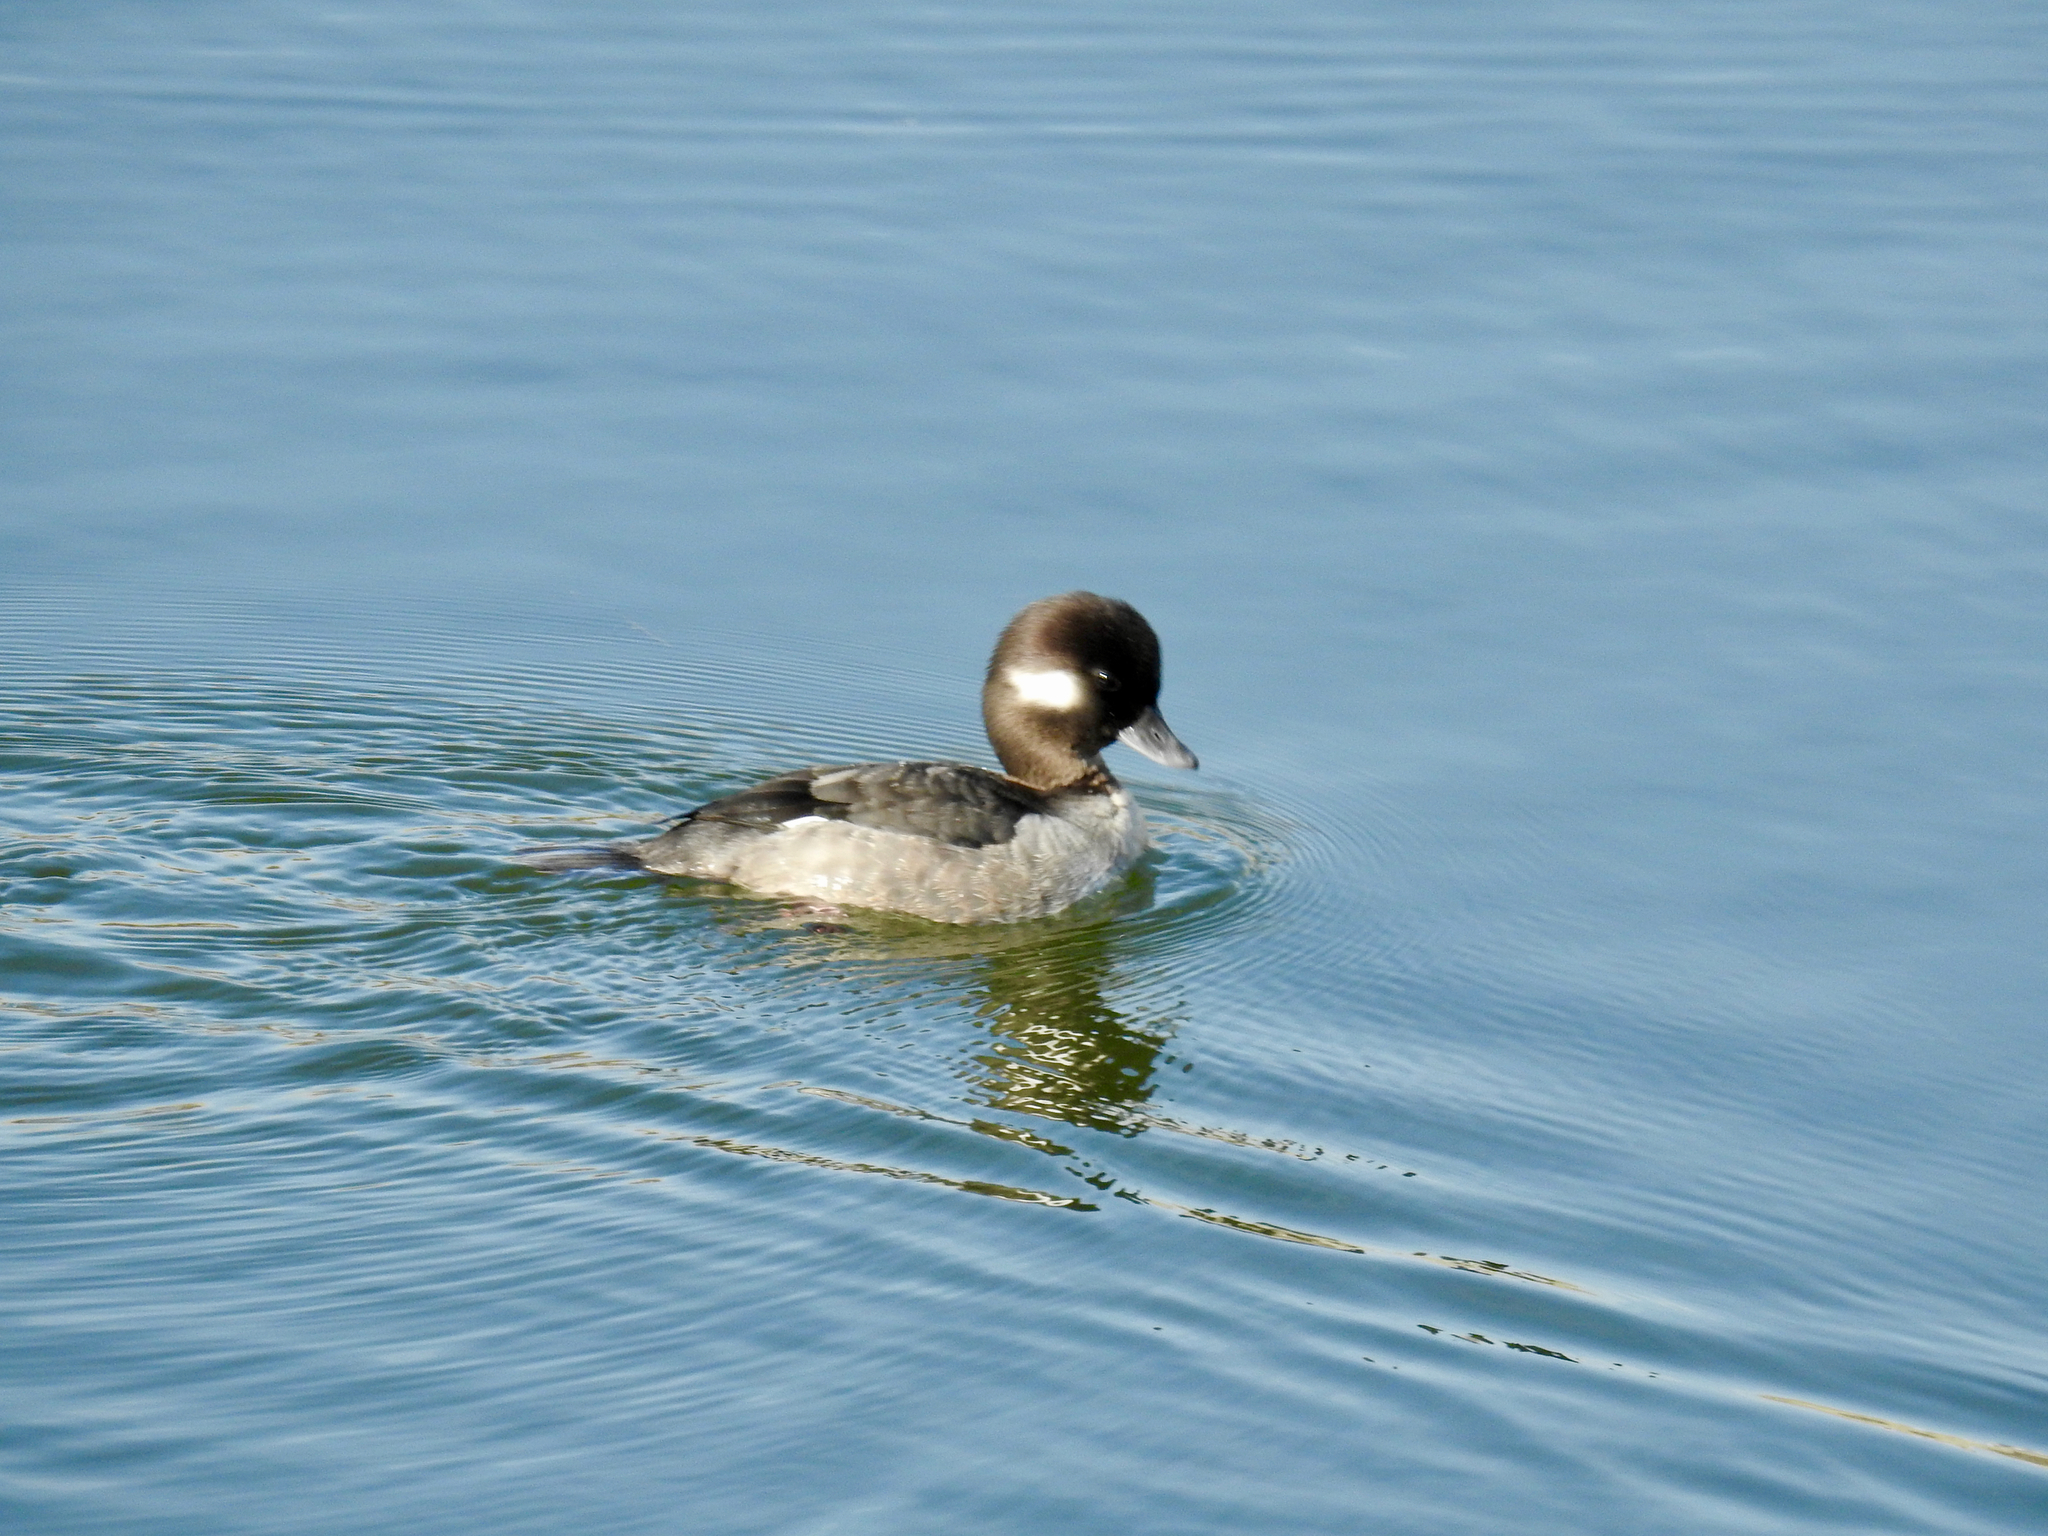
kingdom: Animalia
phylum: Chordata
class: Aves
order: Anseriformes
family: Anatidae
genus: Bucephala
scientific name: Bucephala albeola
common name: Bufflehead
